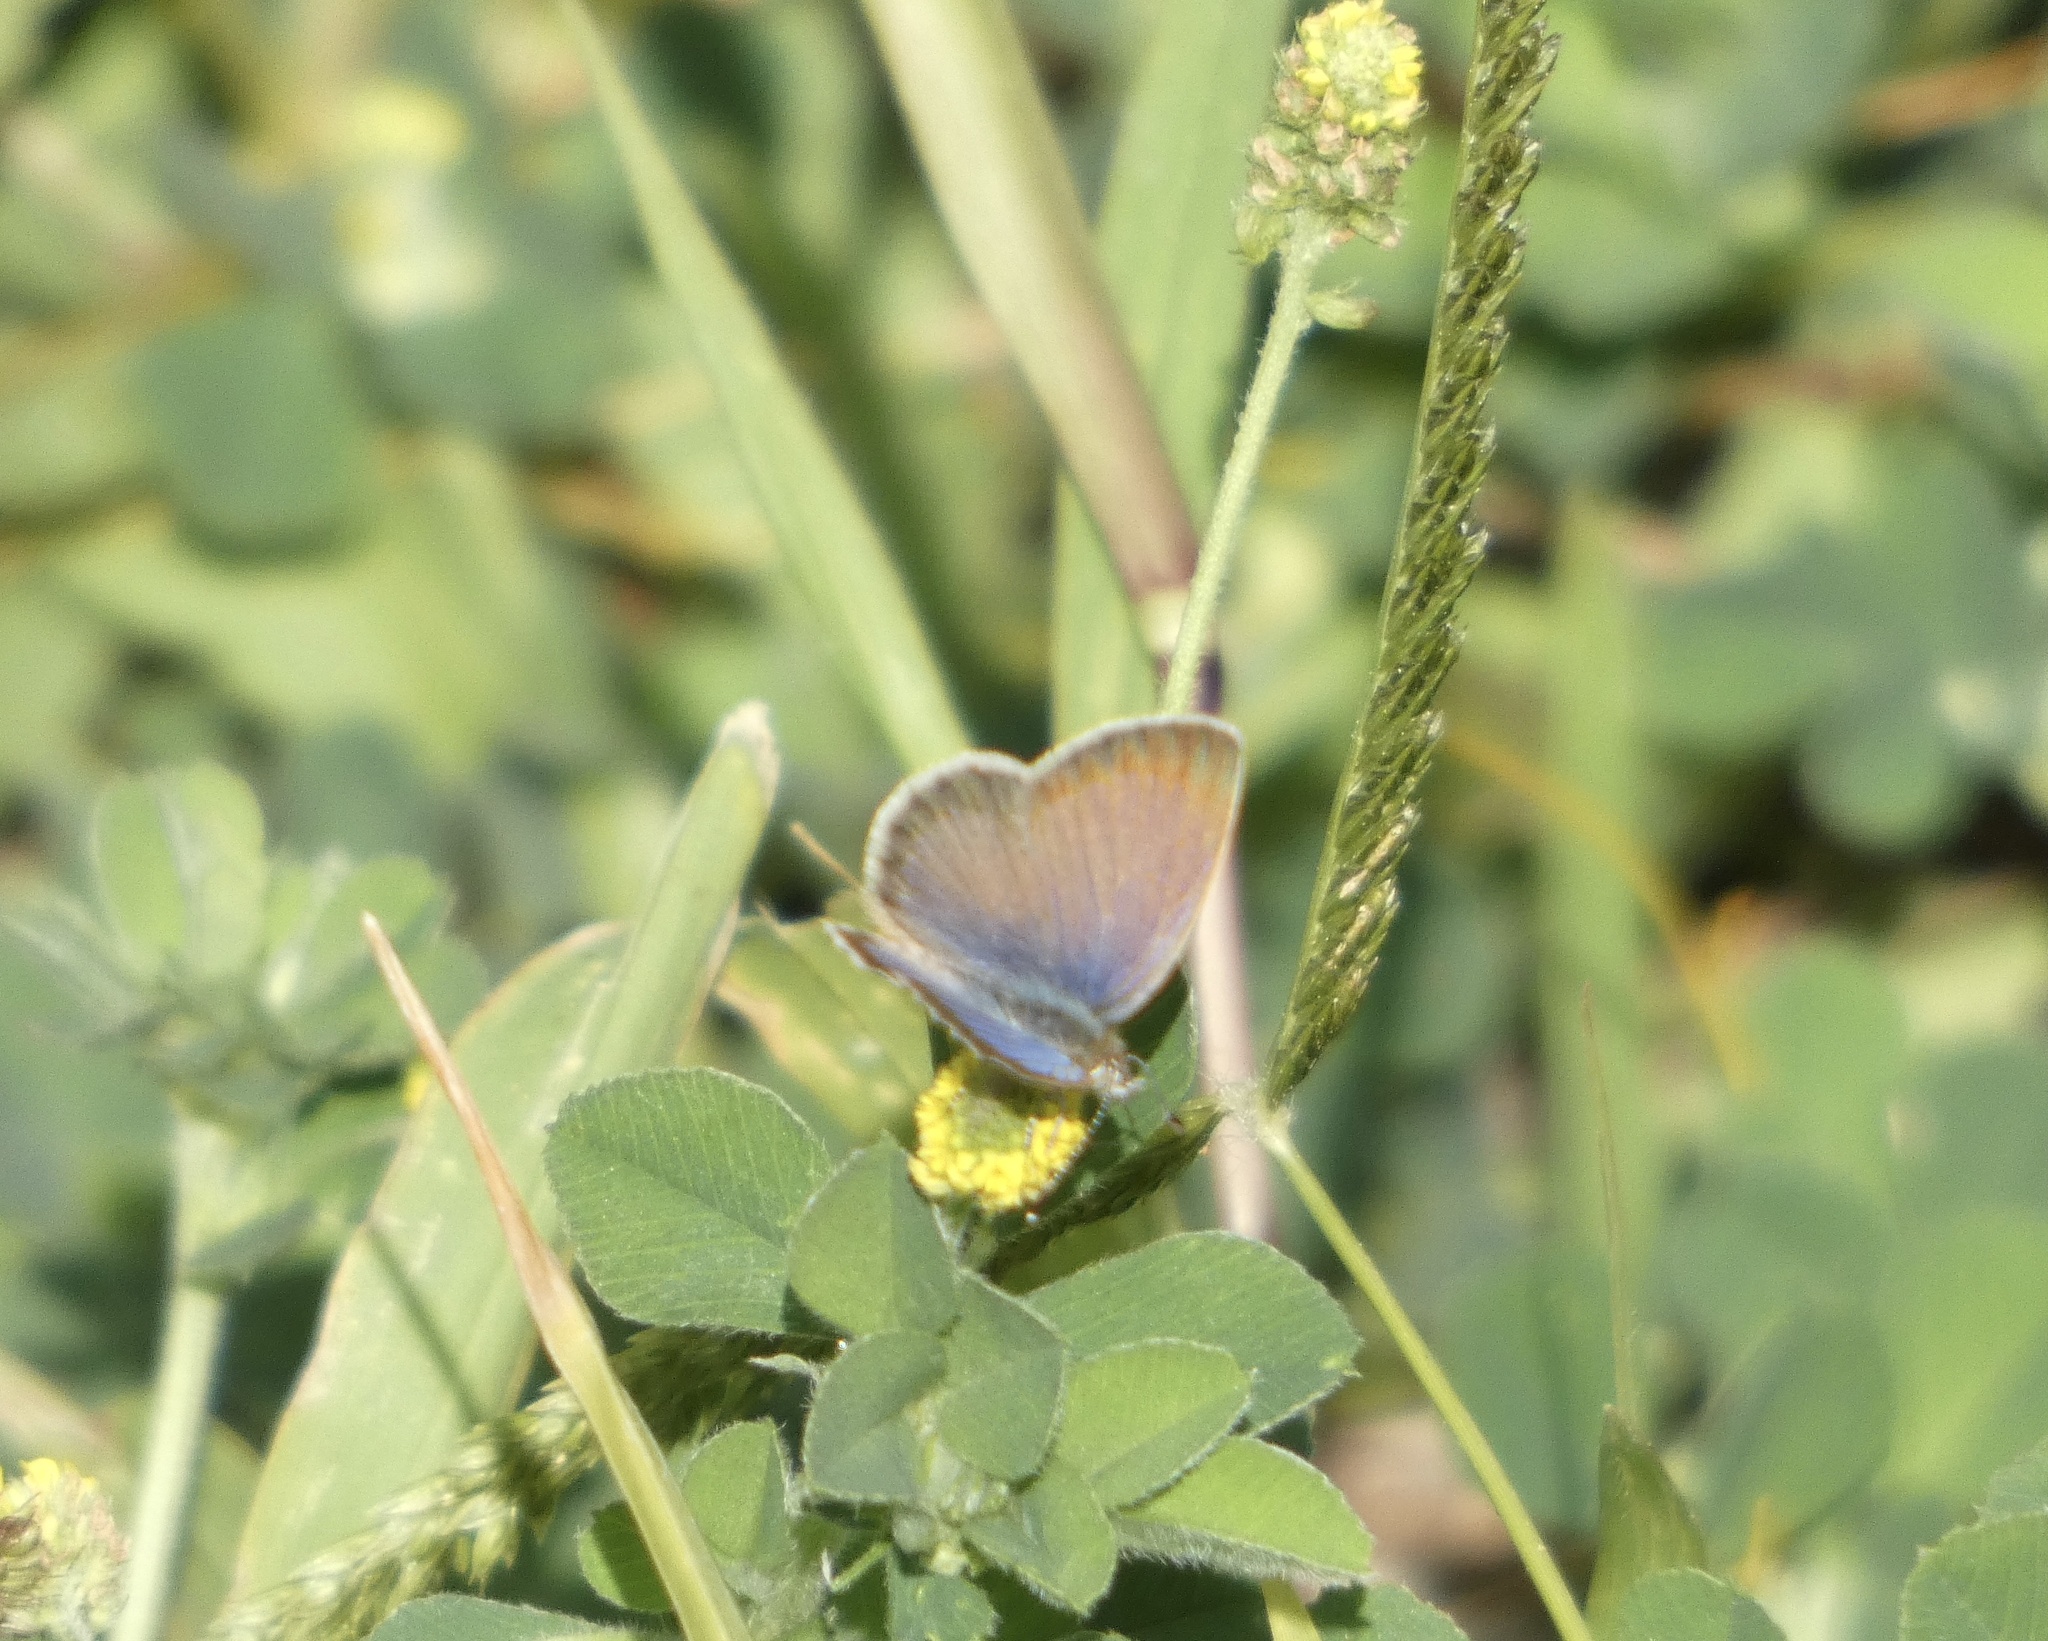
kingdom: Animalia
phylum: Arthropoda
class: Insecta
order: Lepidoptera
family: Lycaenidae
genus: Zizeeria
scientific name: Zizeeria knysna
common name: African grass blue
